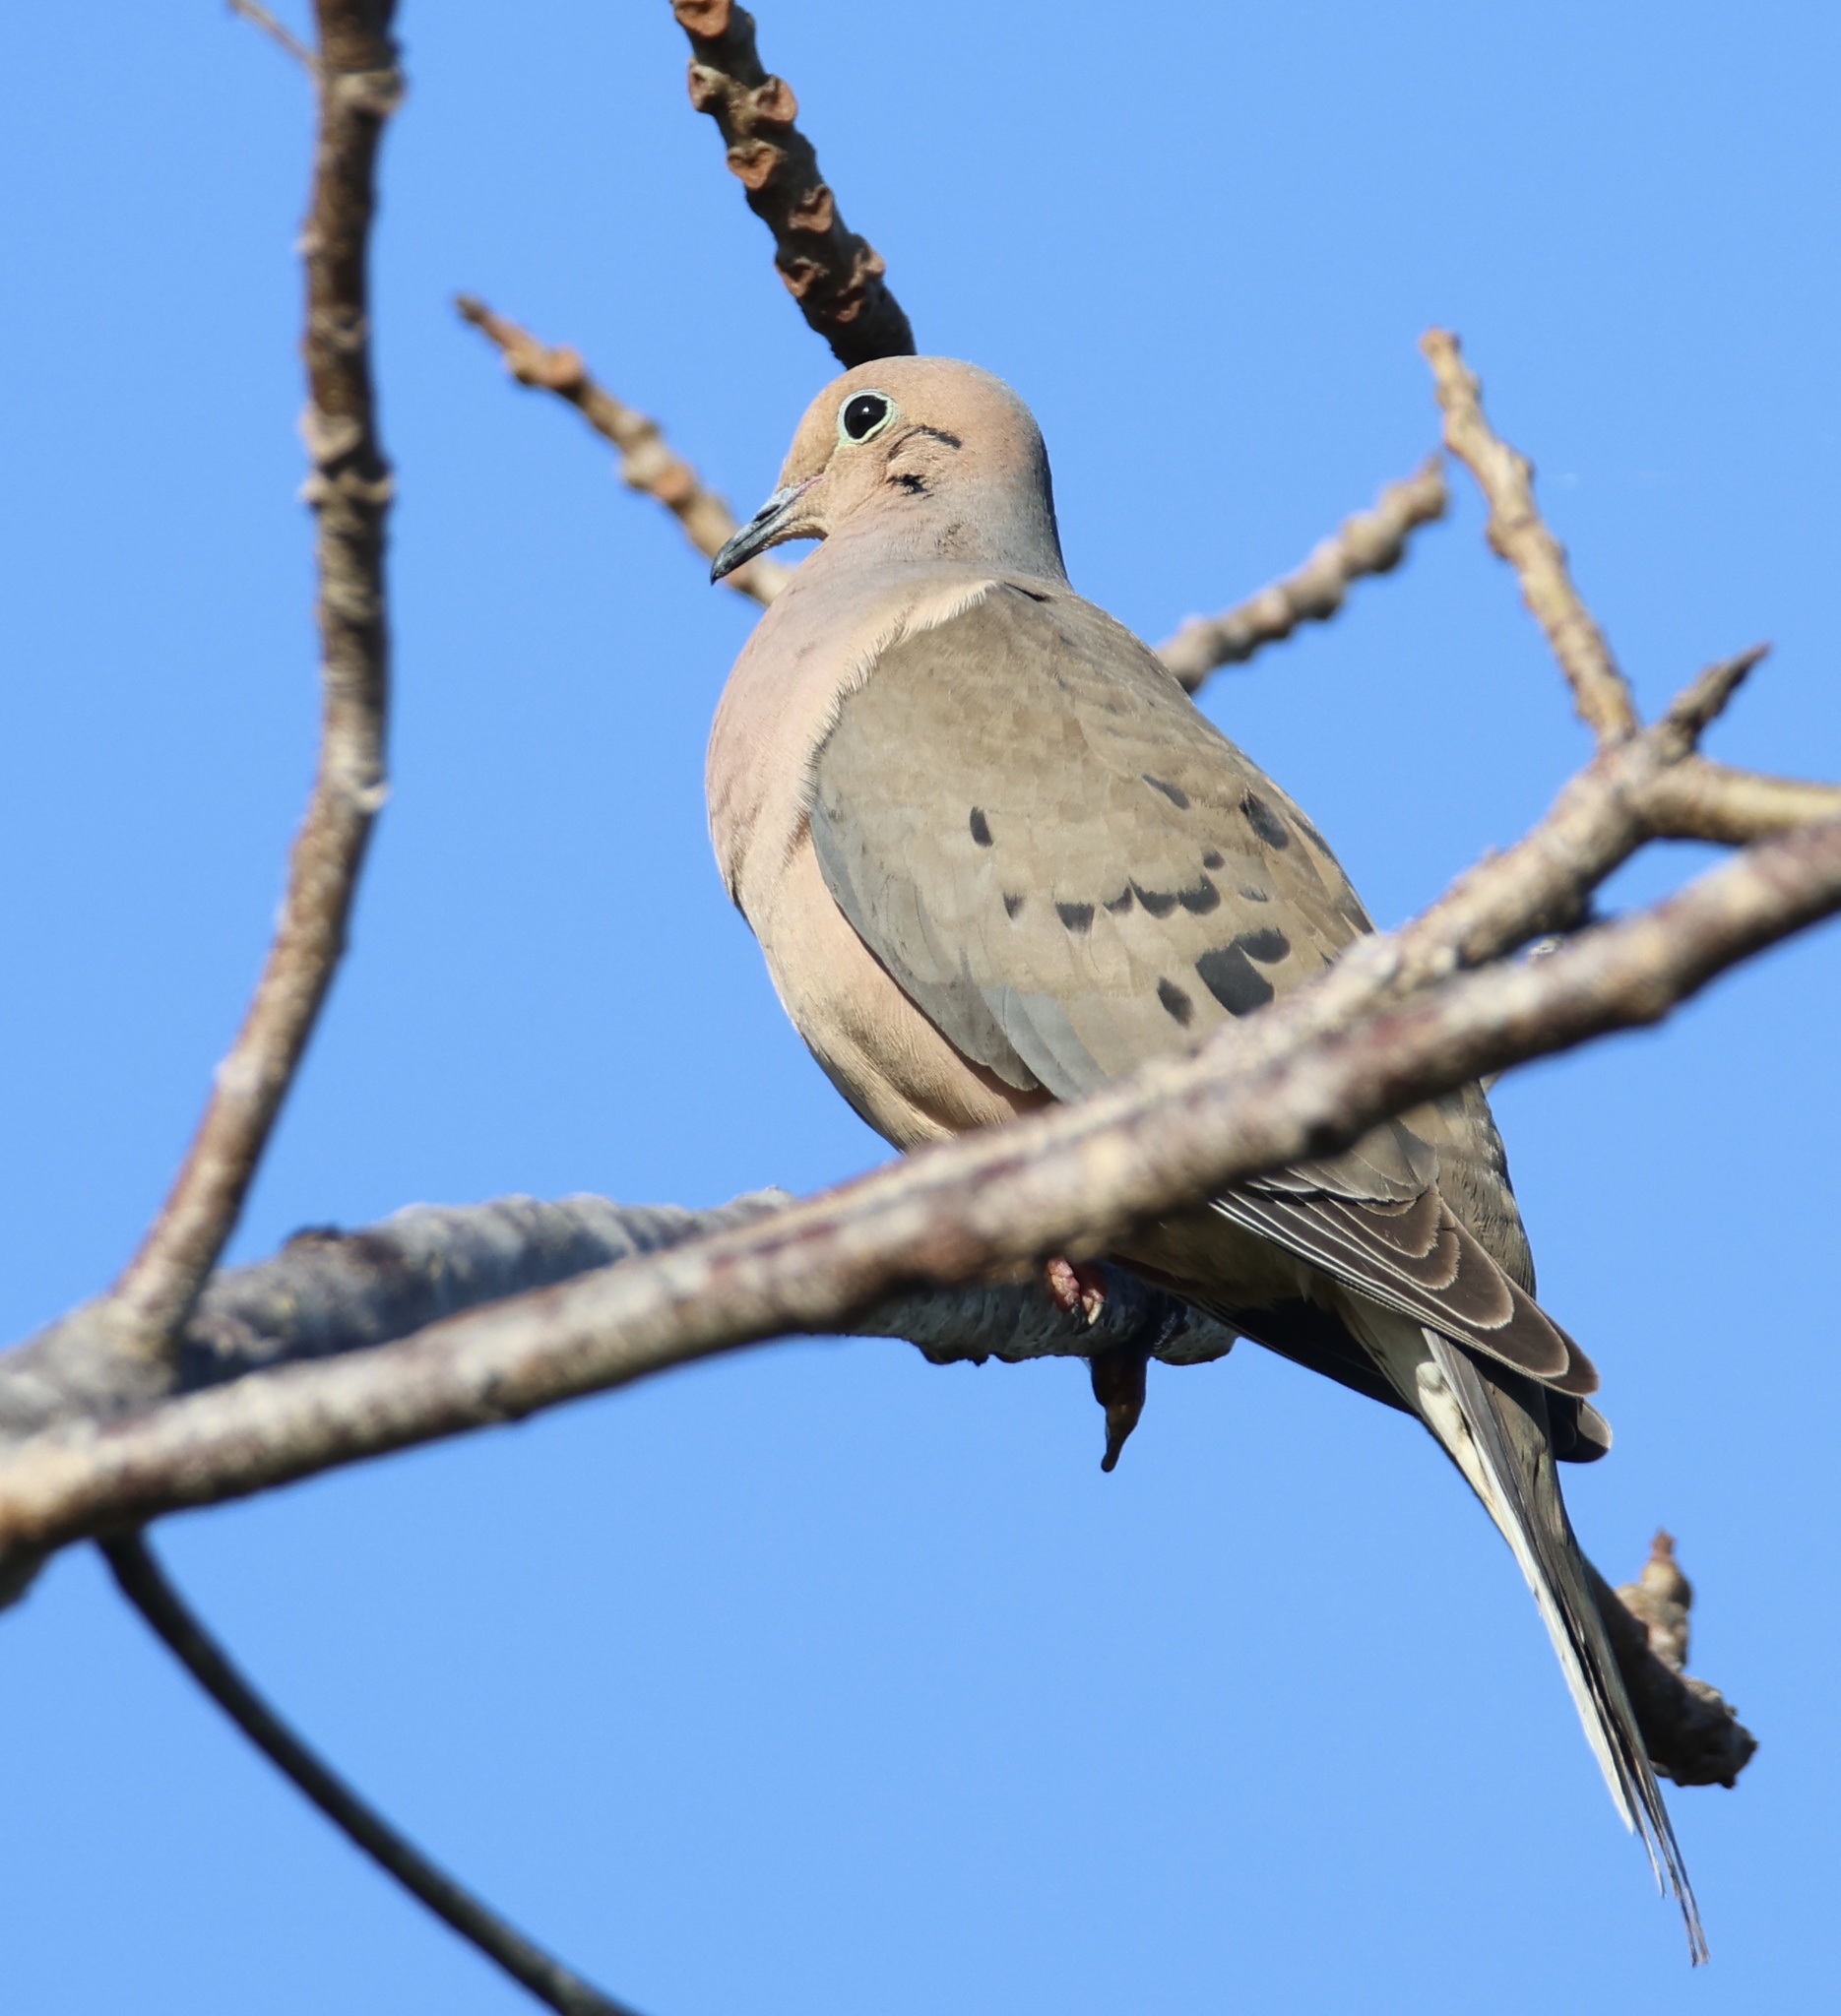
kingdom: Animalia
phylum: Chordata
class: Aves
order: Columbiformes
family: Columbidae
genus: Zenaida
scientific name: Zenaida macroura
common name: Mourning dove
